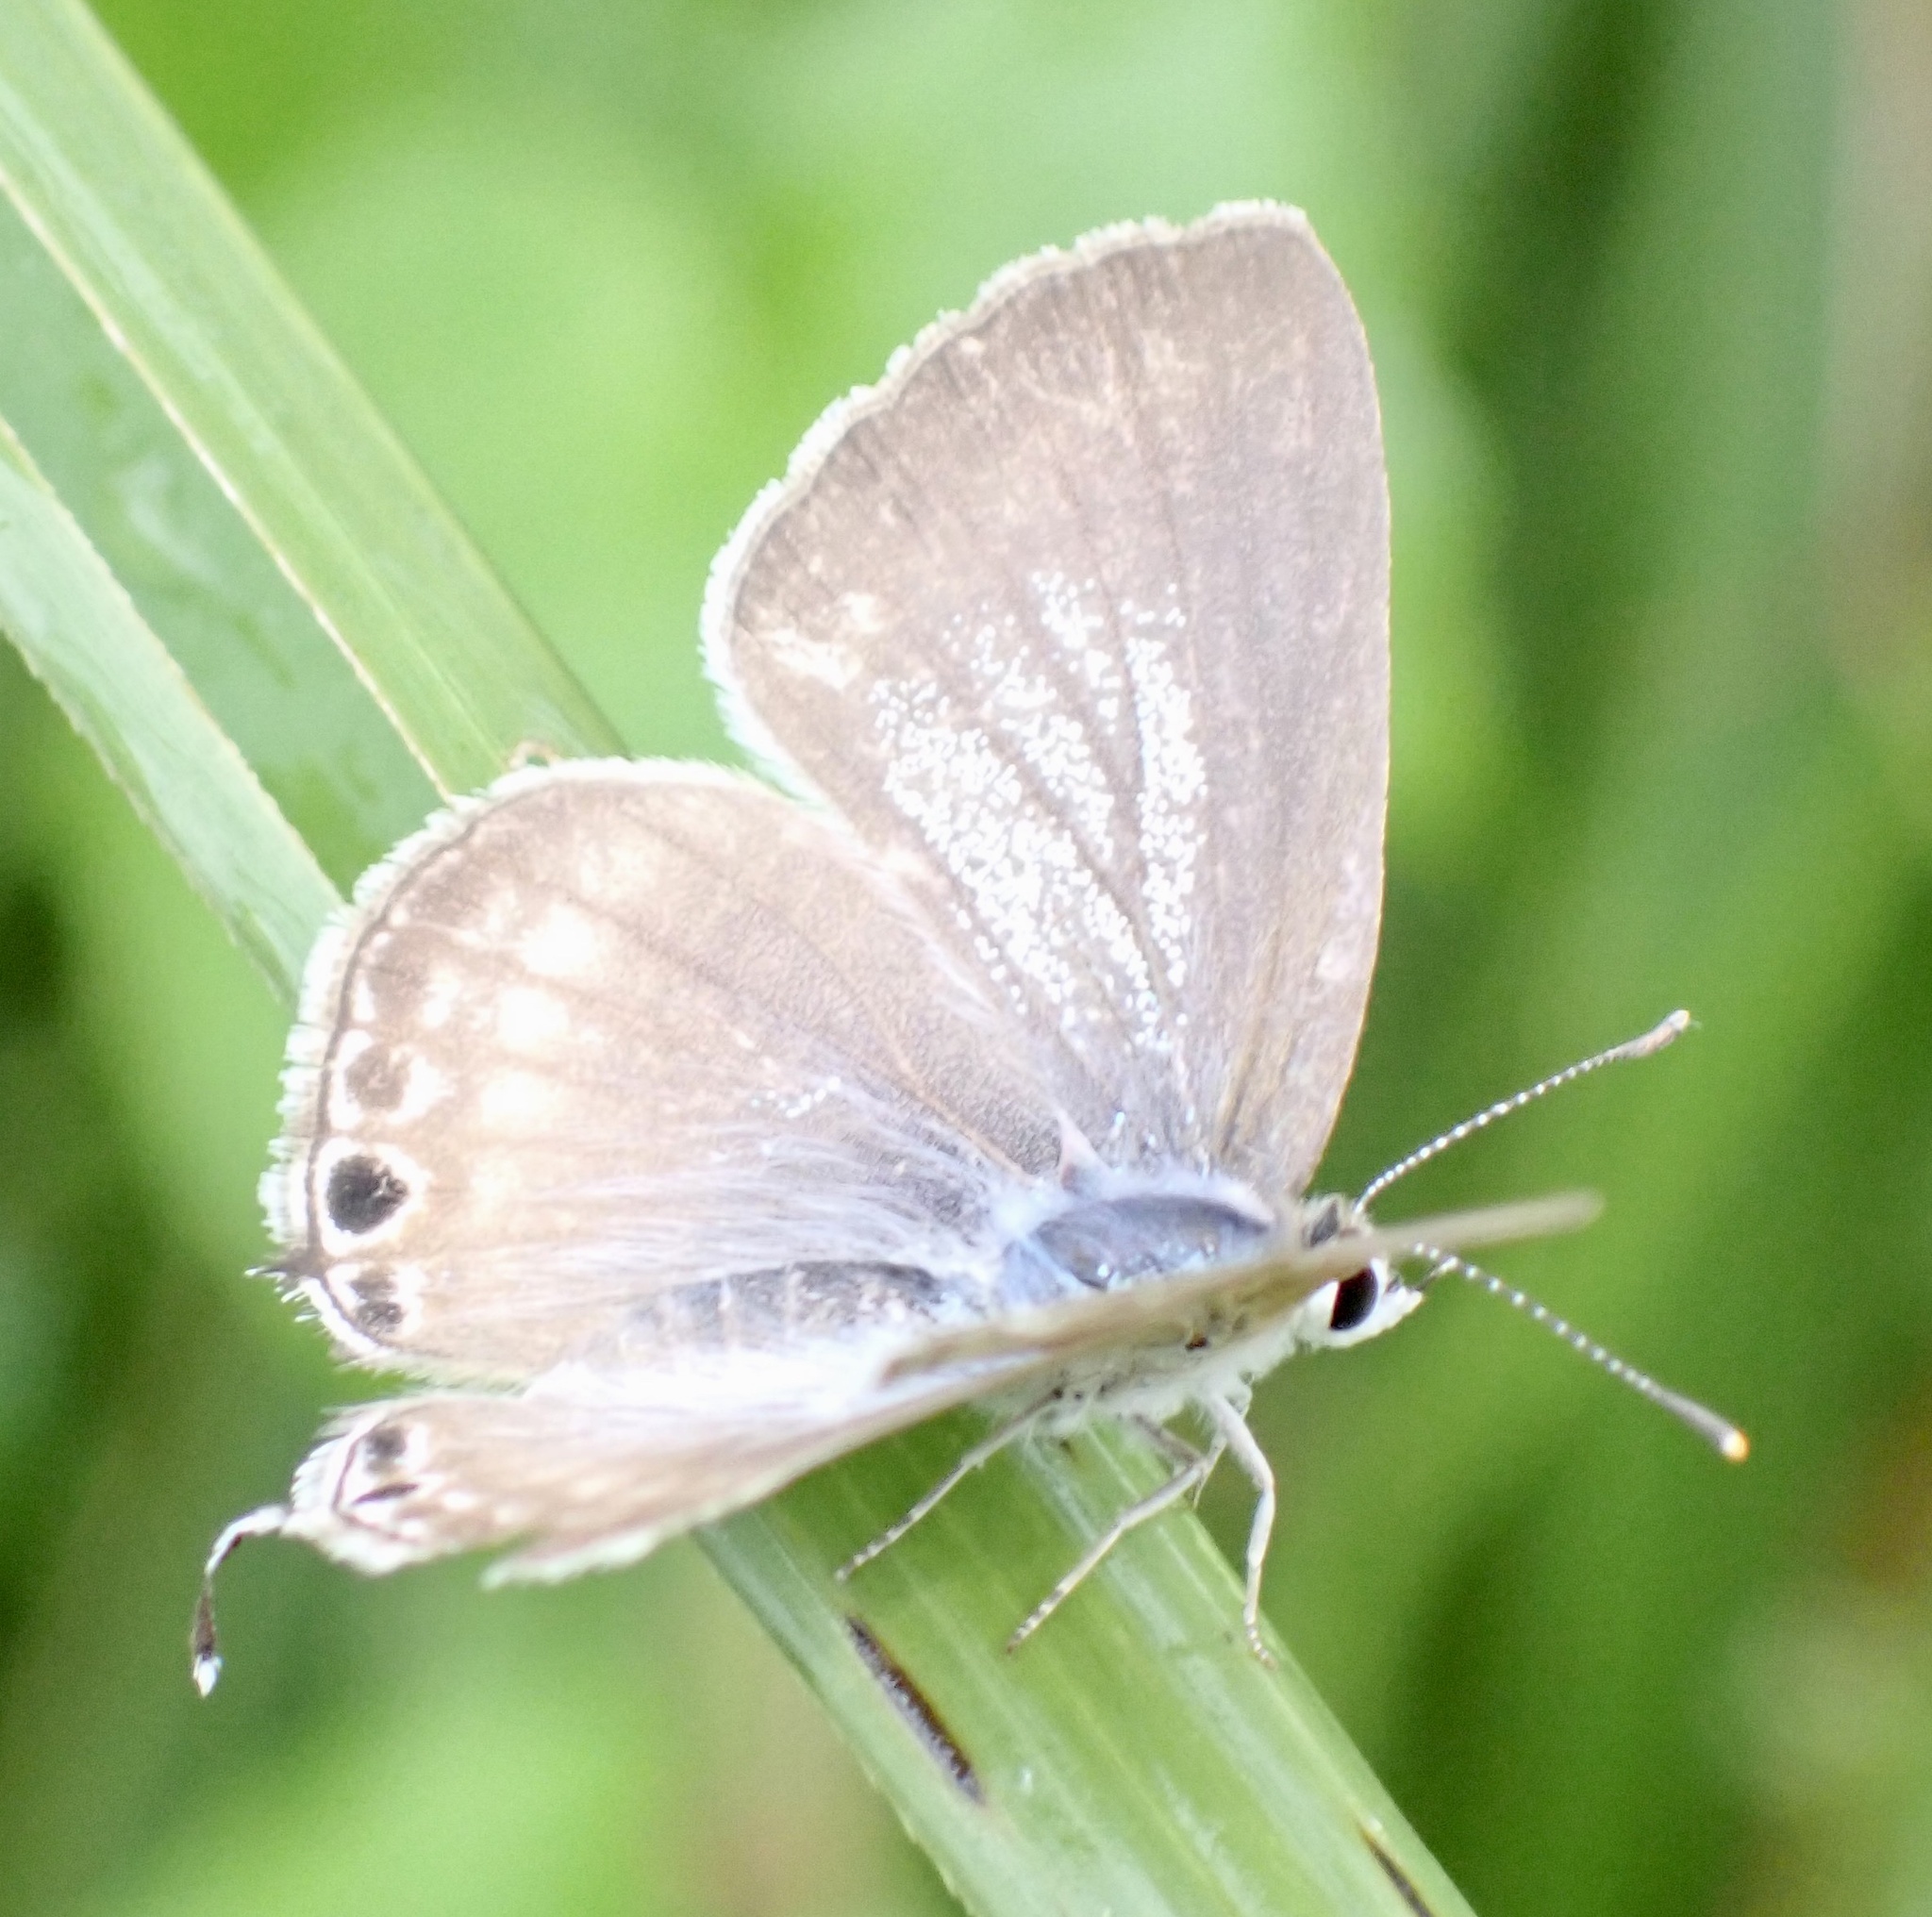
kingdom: Animalia
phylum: Arthropoda
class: Insecta
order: Lepidoptera
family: Lycaenidae
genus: Lampides
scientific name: Lampides boeticus
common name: Long-tailed blue
